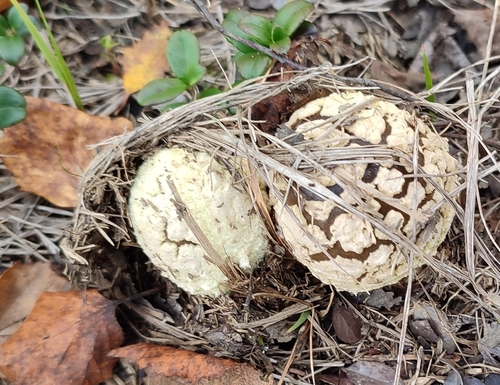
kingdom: Fungi
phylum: Basidiomycota
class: Agaricomycetes
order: Agaricales
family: Amanitaceae
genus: Amanita
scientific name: Amanita regalis
